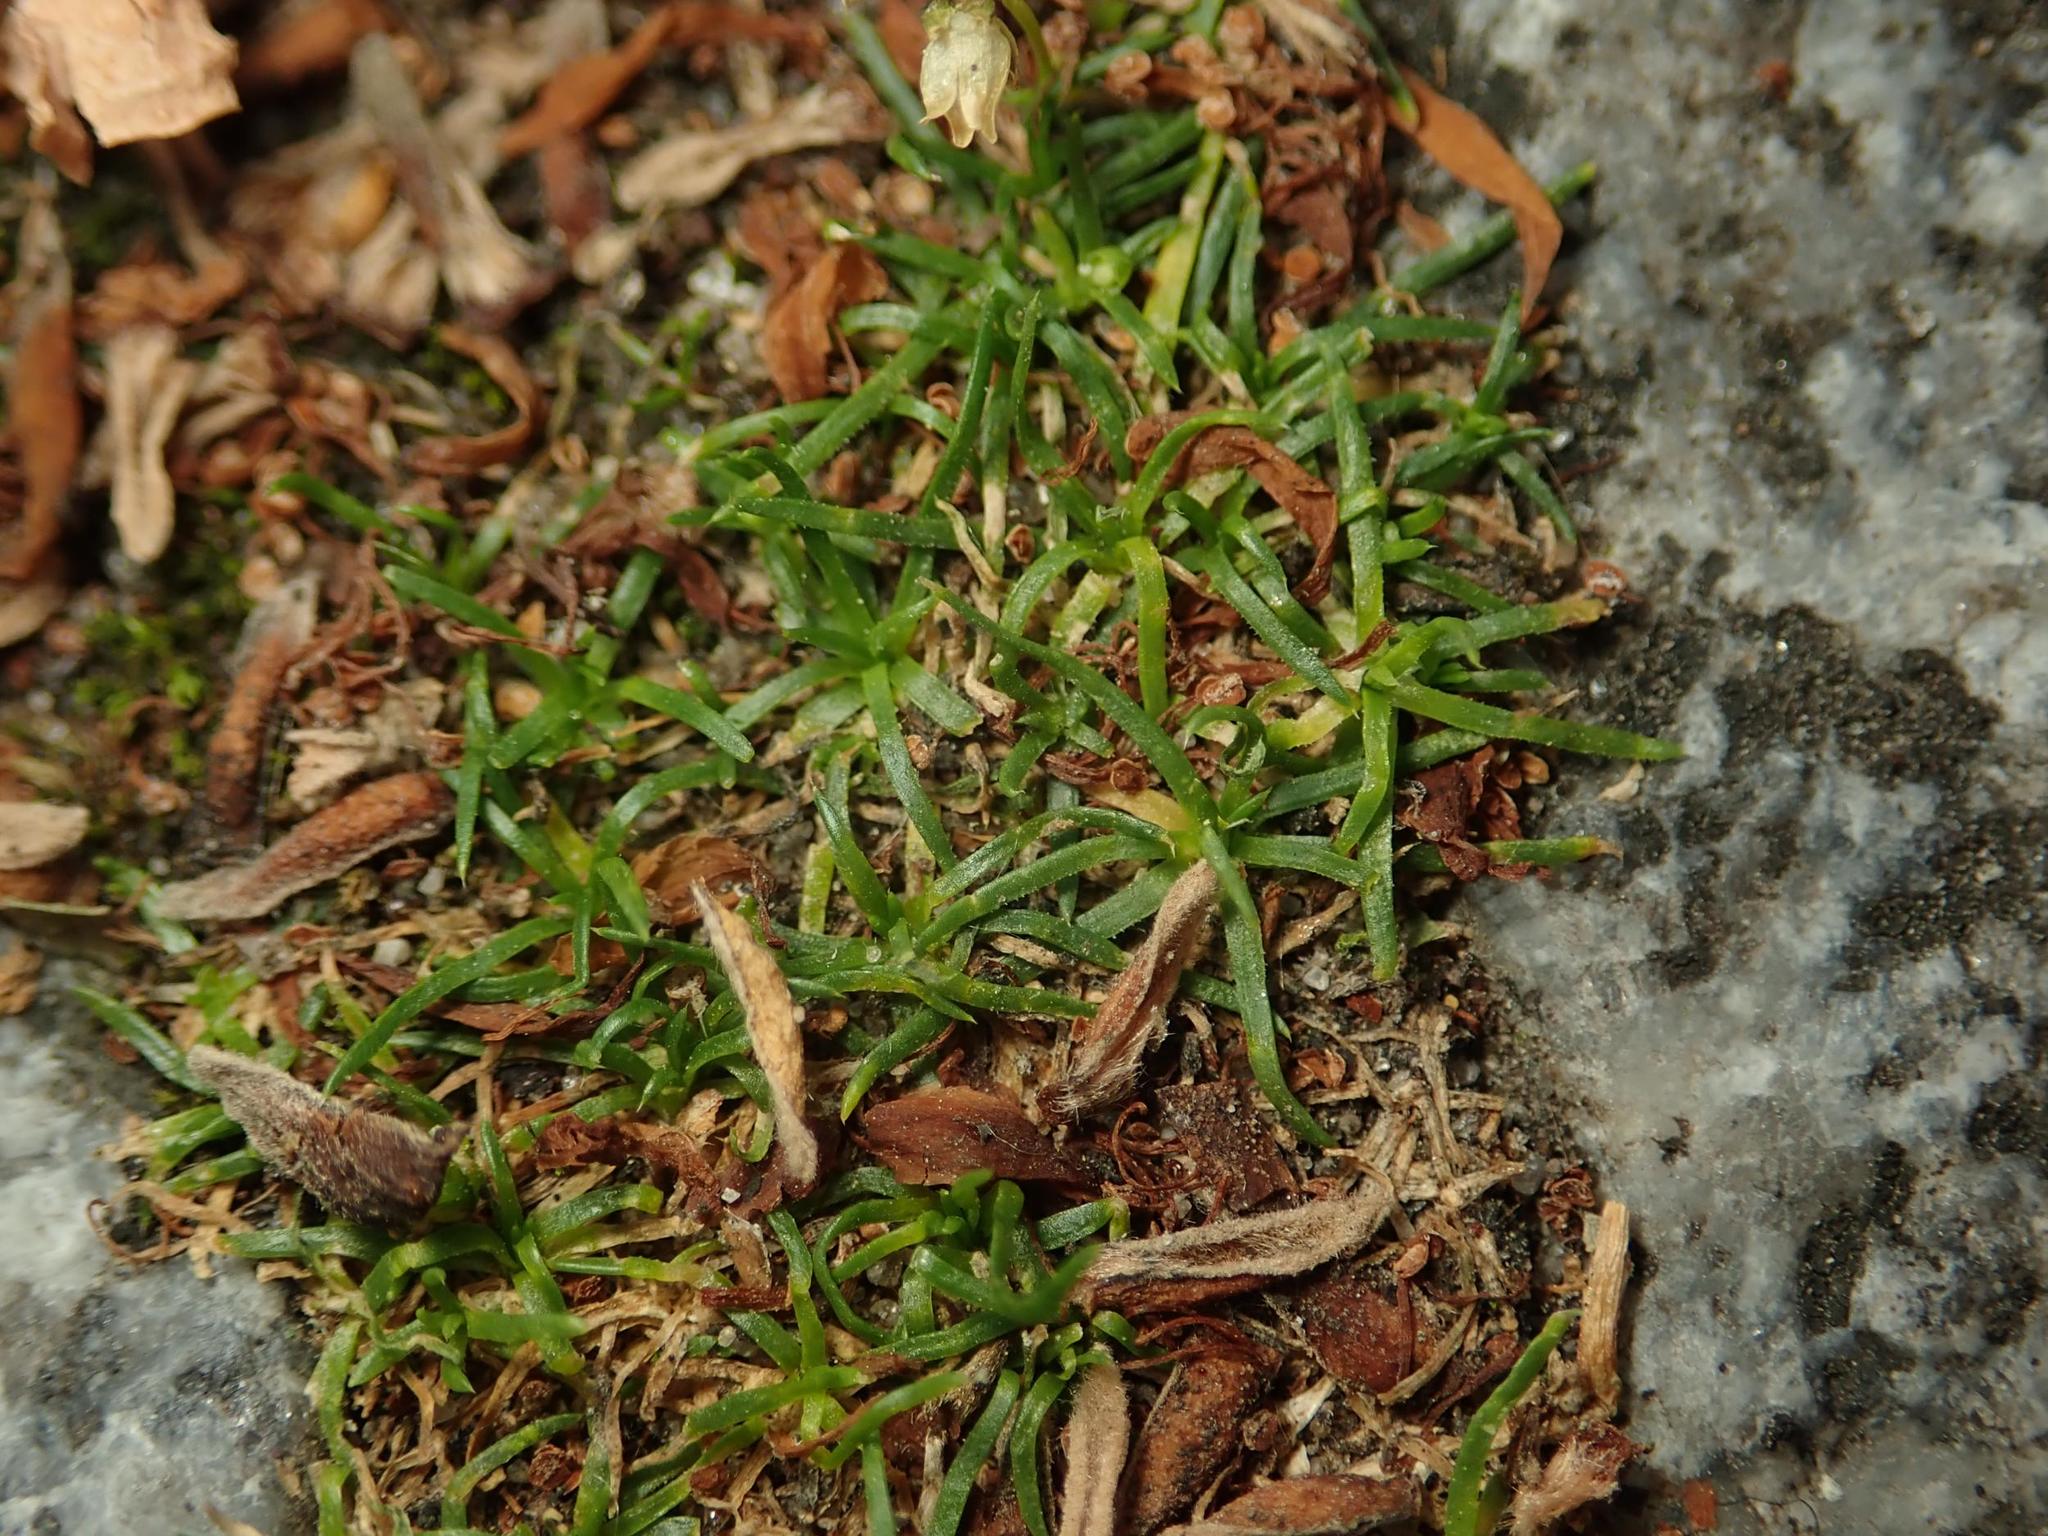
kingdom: Plantae
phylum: Tracheophyta
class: Magnoliopsida
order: Caryophyllales
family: Caryophyllaceae
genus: Sagina
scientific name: Sagina procumbens
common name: Procumbent pearlwort
